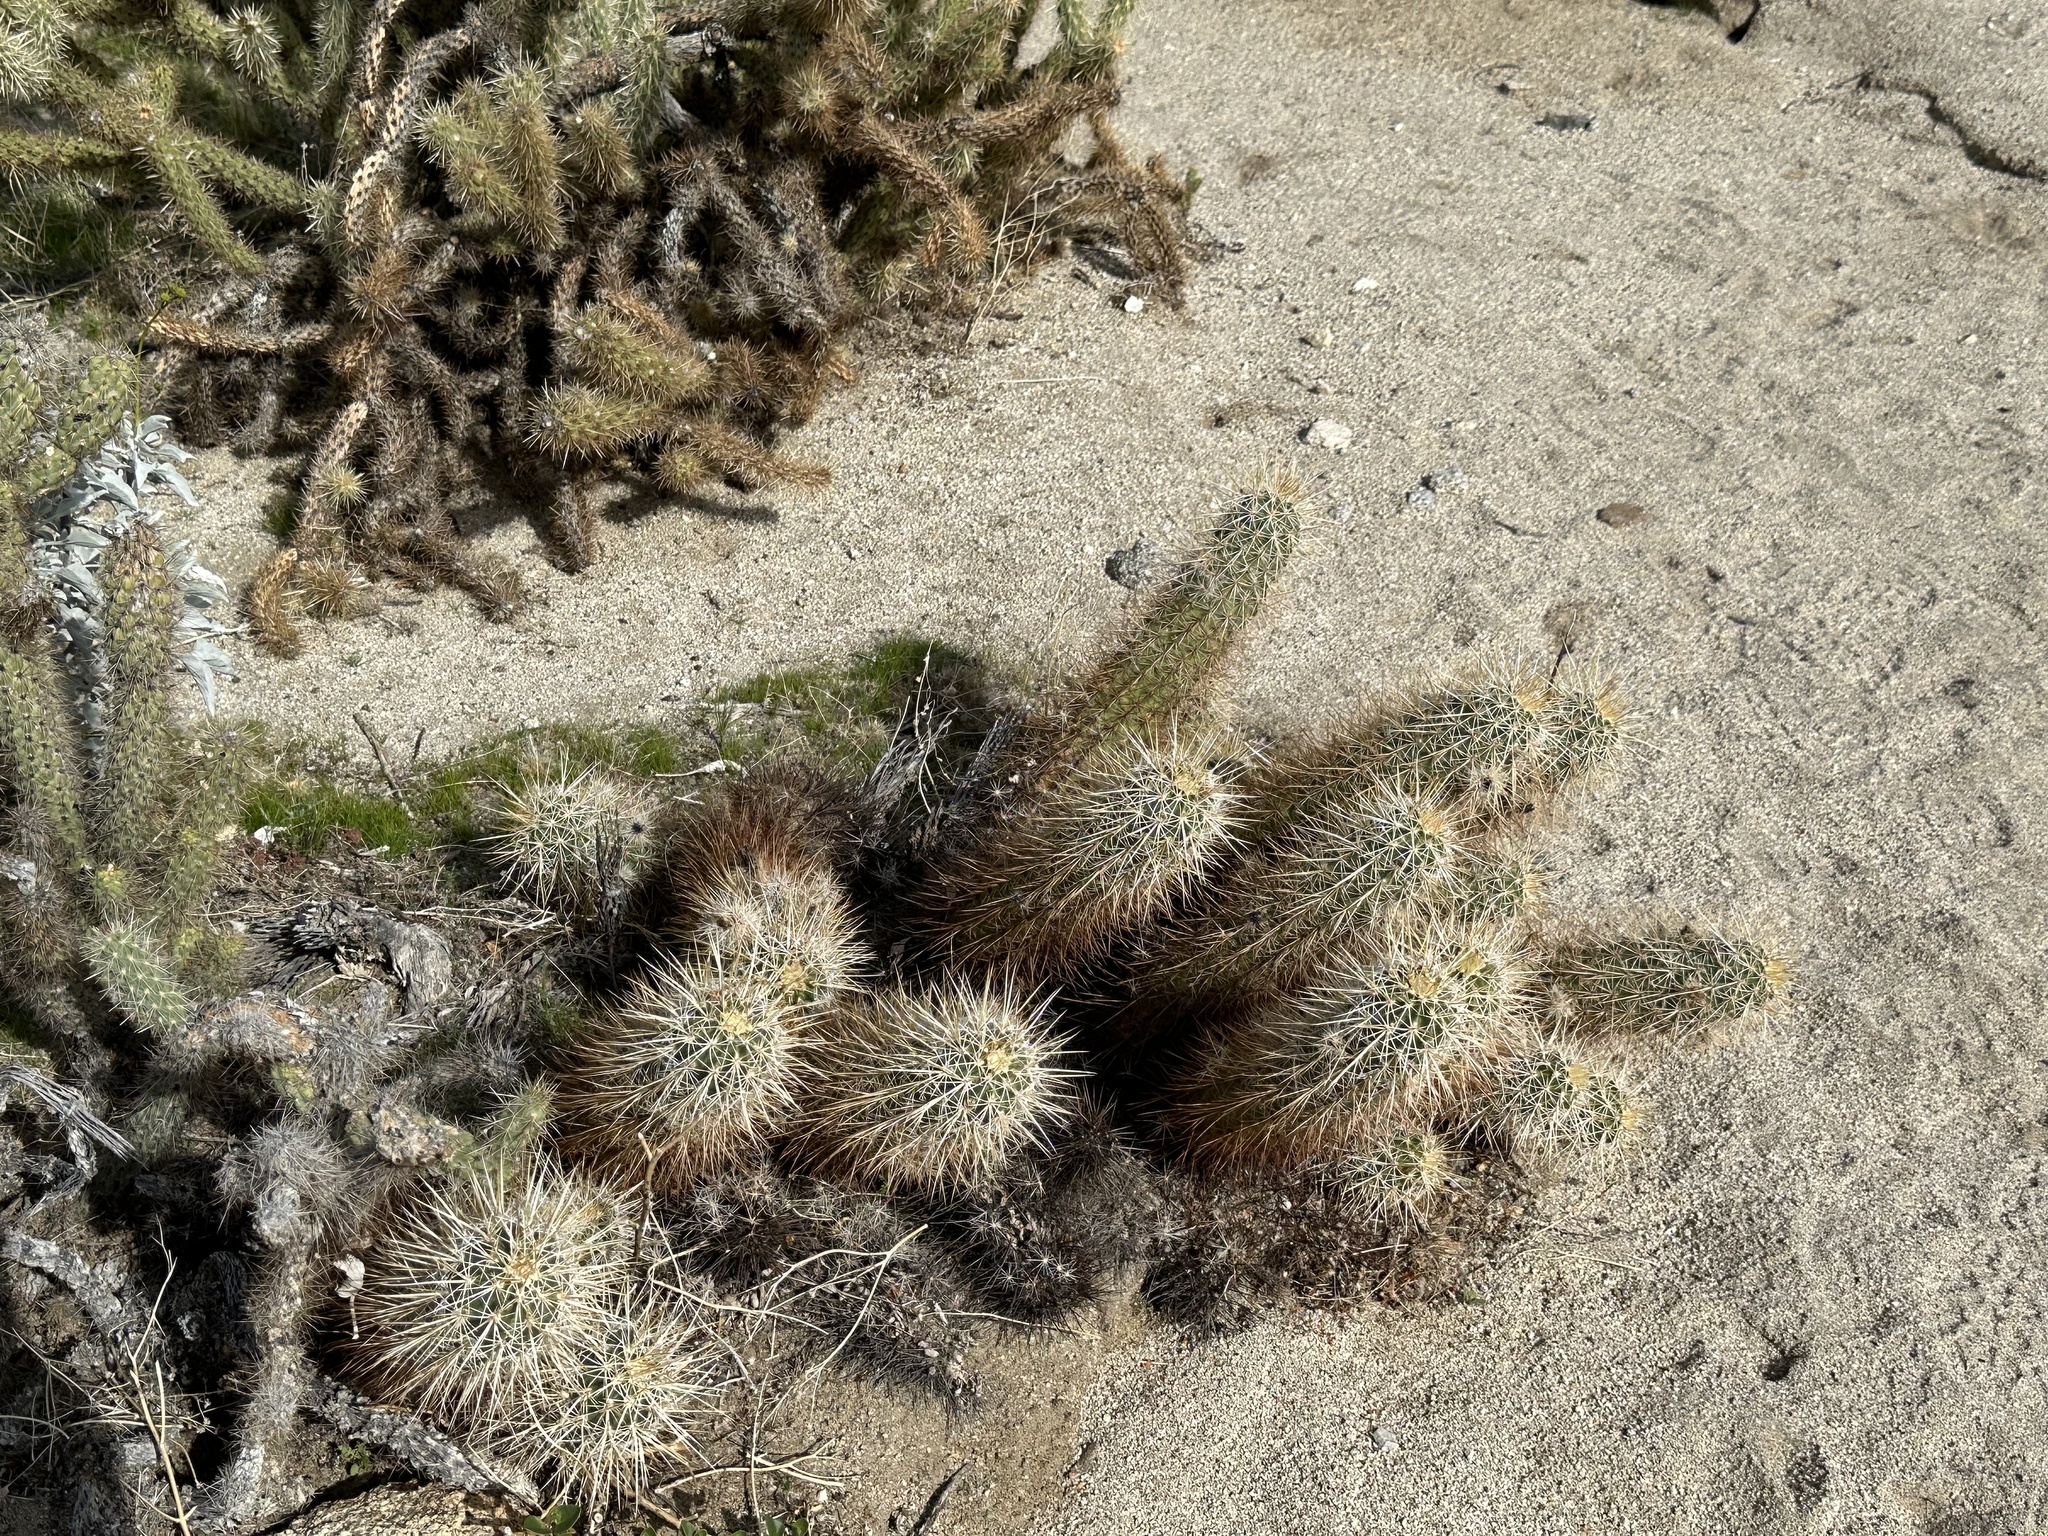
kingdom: Plantae
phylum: Tracheophyta
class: Magnoliopsida
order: Caryophyllales
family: Cactaceae
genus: Echinocereus
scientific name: Echinocereus engelmannii
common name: Engelmann's hedgehog cactus
